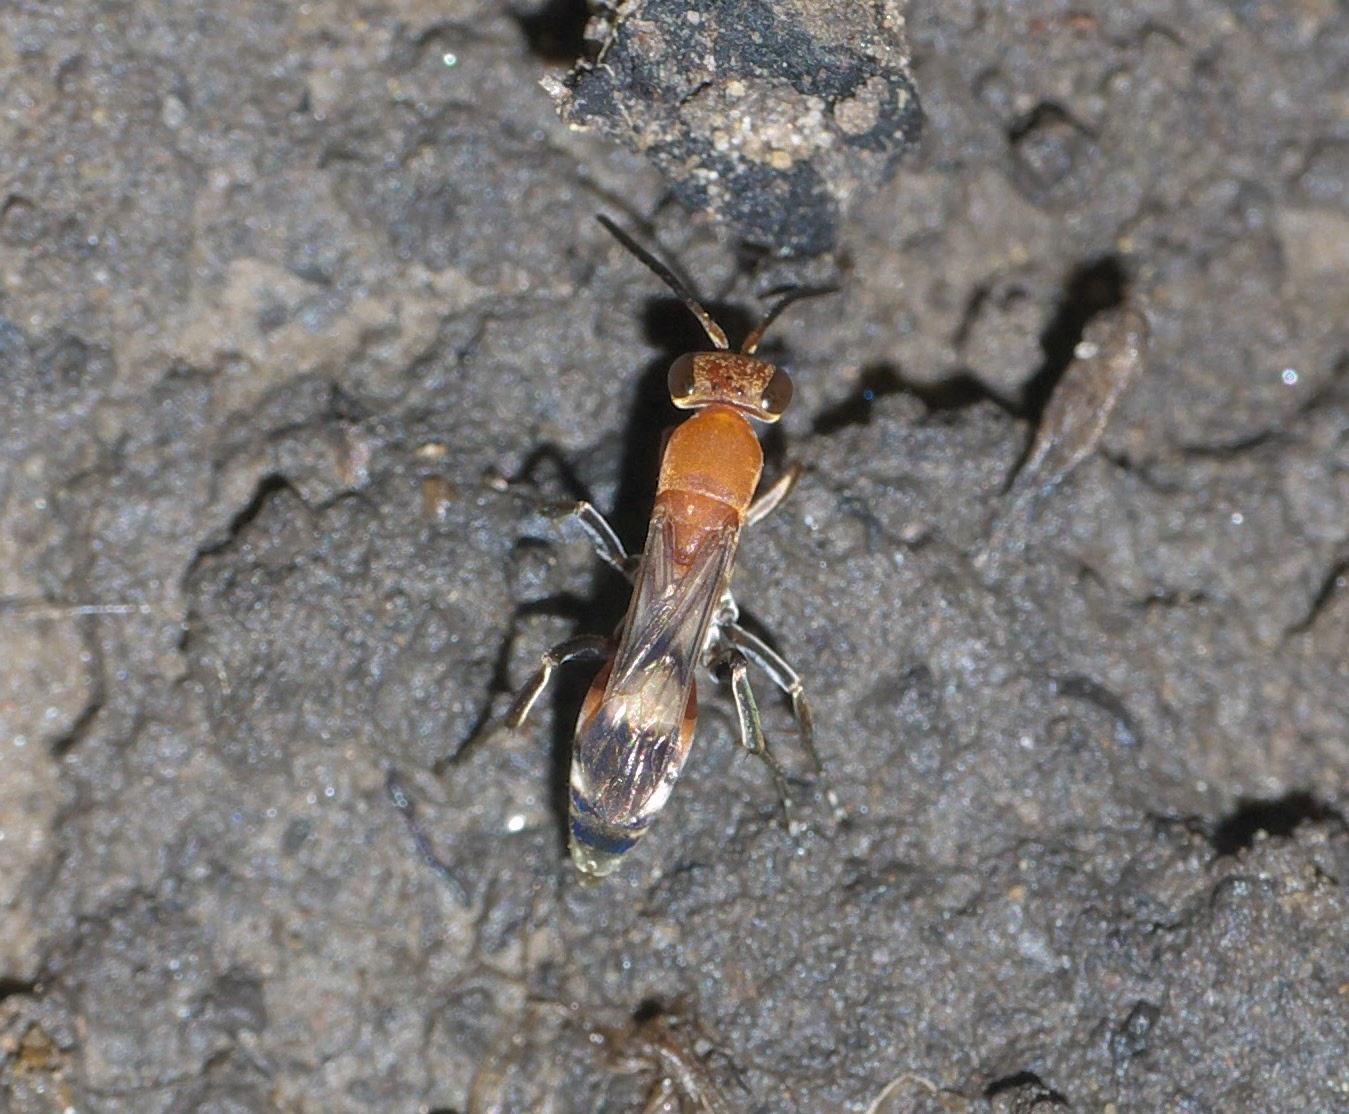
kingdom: Animalia
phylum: Arthropoda
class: Insecta
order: Hymenoptera
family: Pompilidae
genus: Psorthaspis
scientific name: Psorthaspis legata
